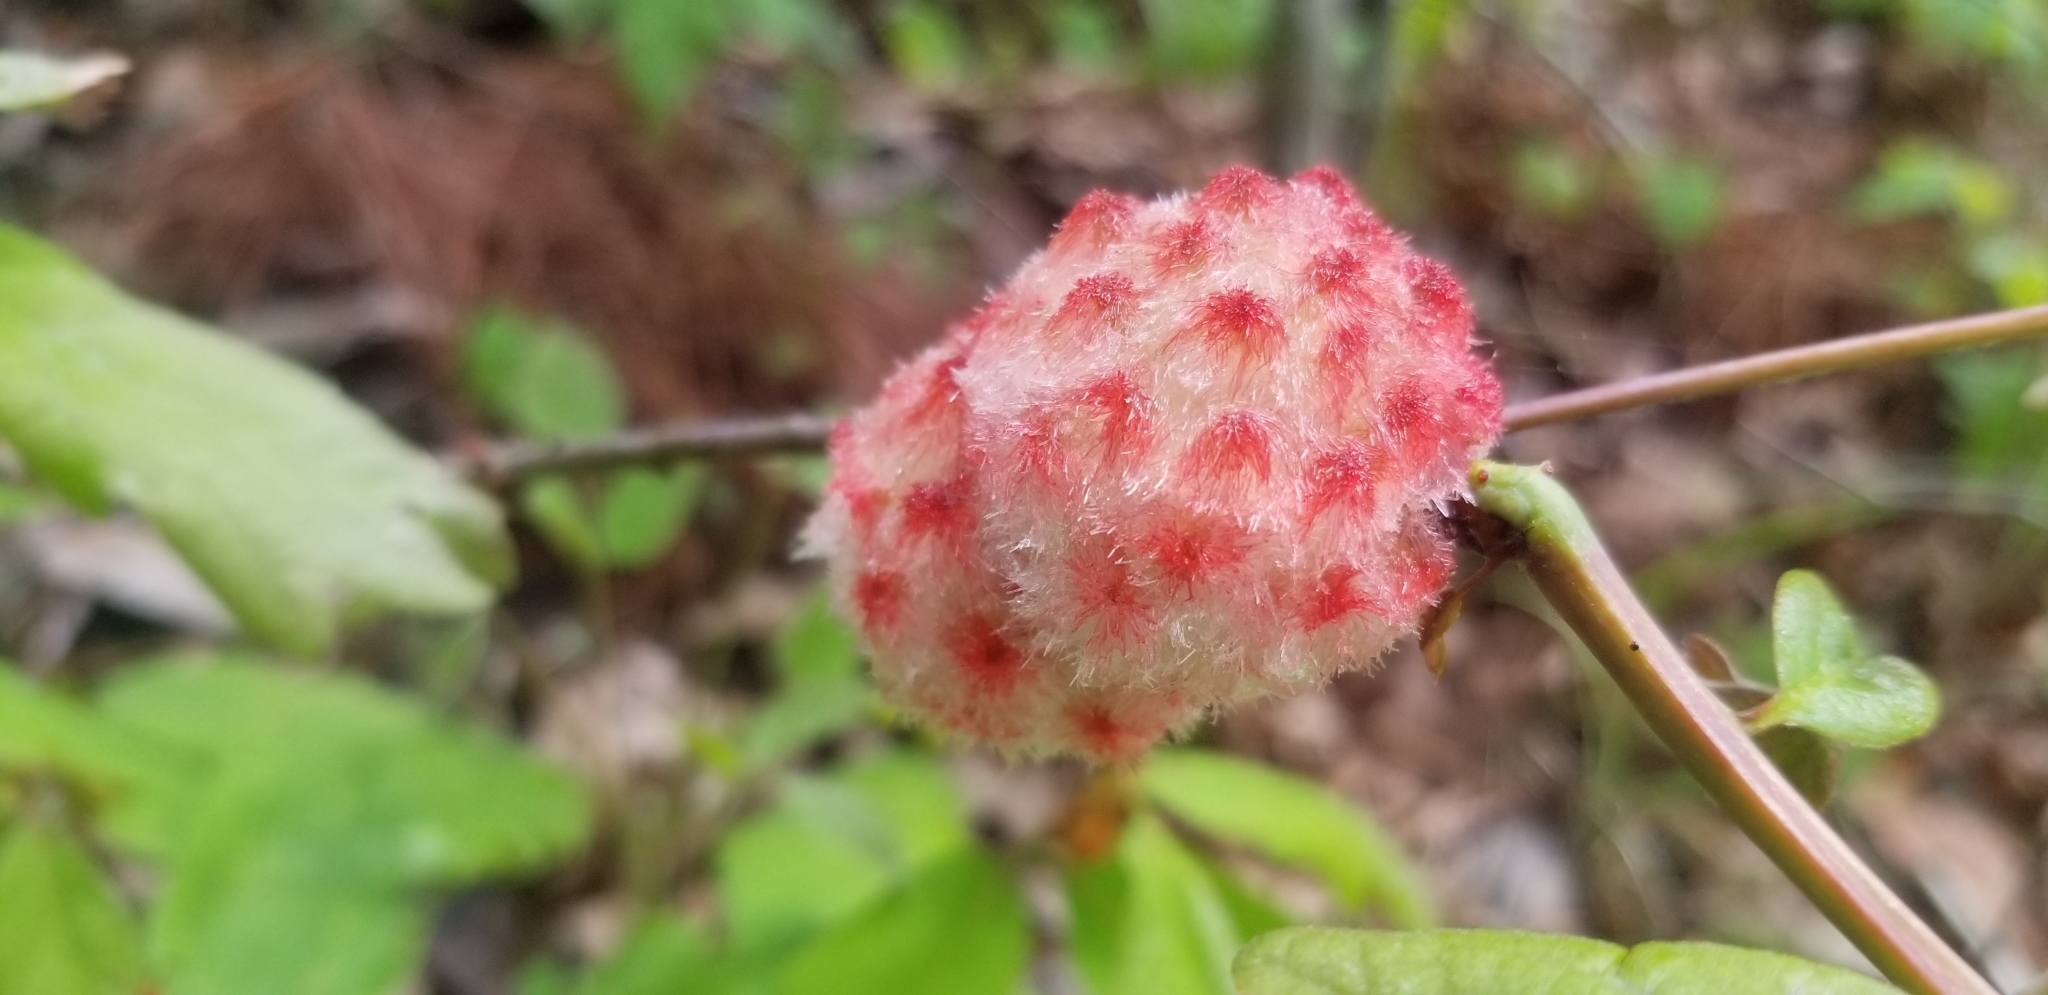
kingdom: Animalia
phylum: Arthropoda
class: Insecta
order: Hymenoptera
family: Cynipidae
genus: Callirhytis
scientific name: Callirhytis
